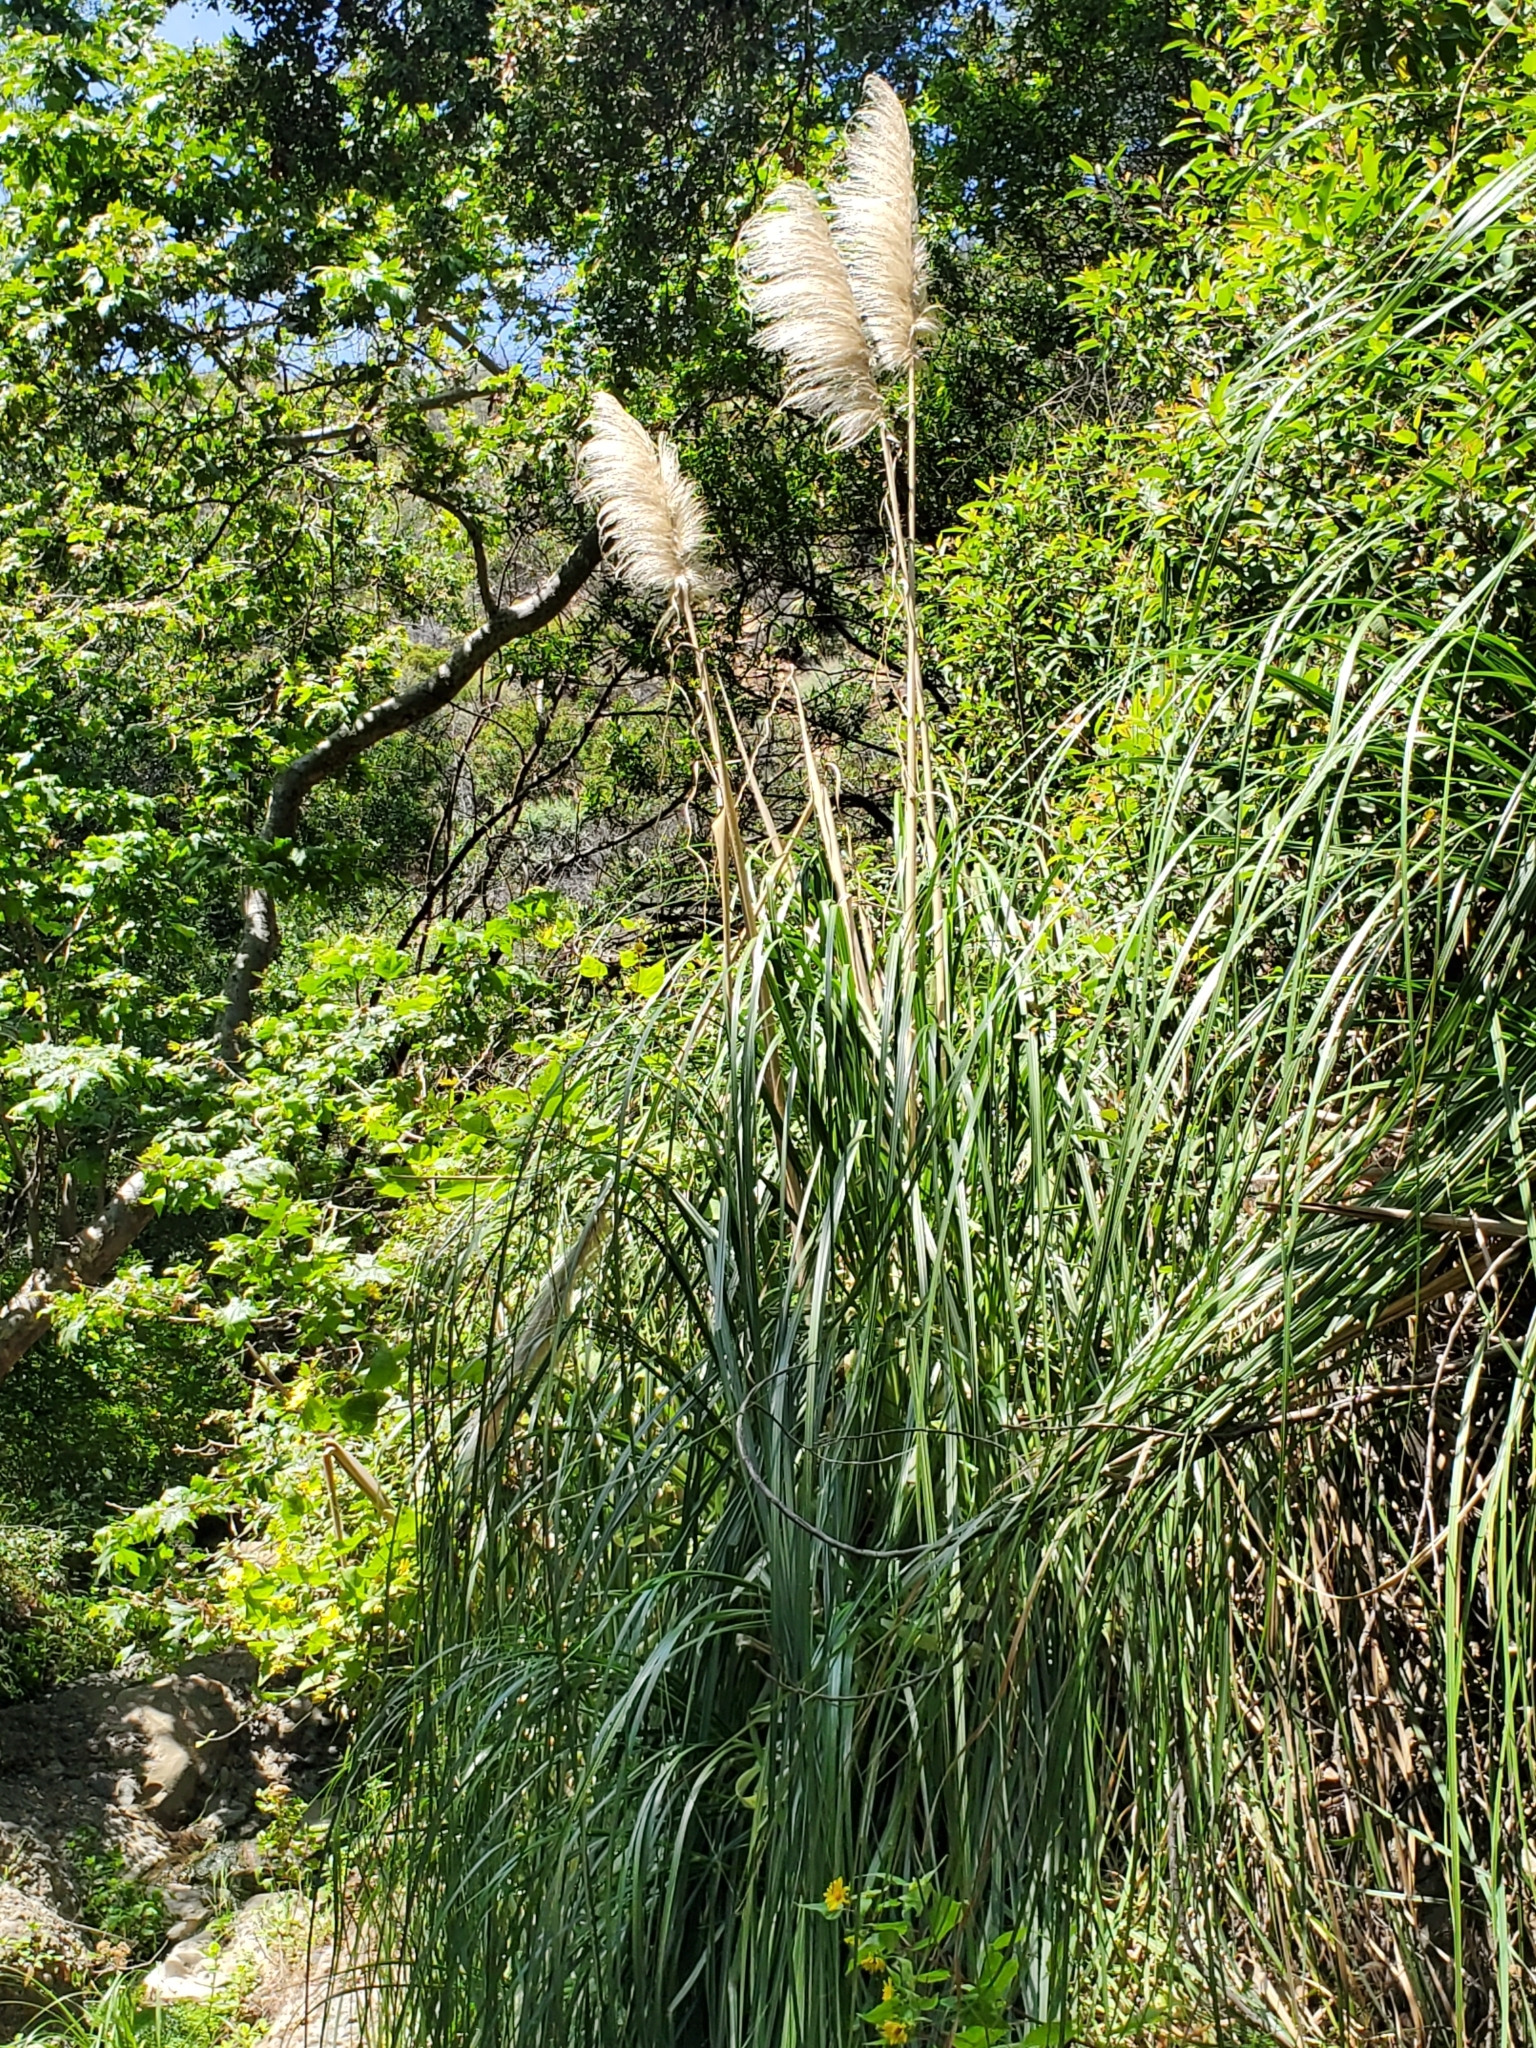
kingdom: Plantae
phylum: Tracheophyta
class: Liliopsida
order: Poales
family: Poaceae
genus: Cortaderia
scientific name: Cortaderia selloana
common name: Uruguayan pampas grass
